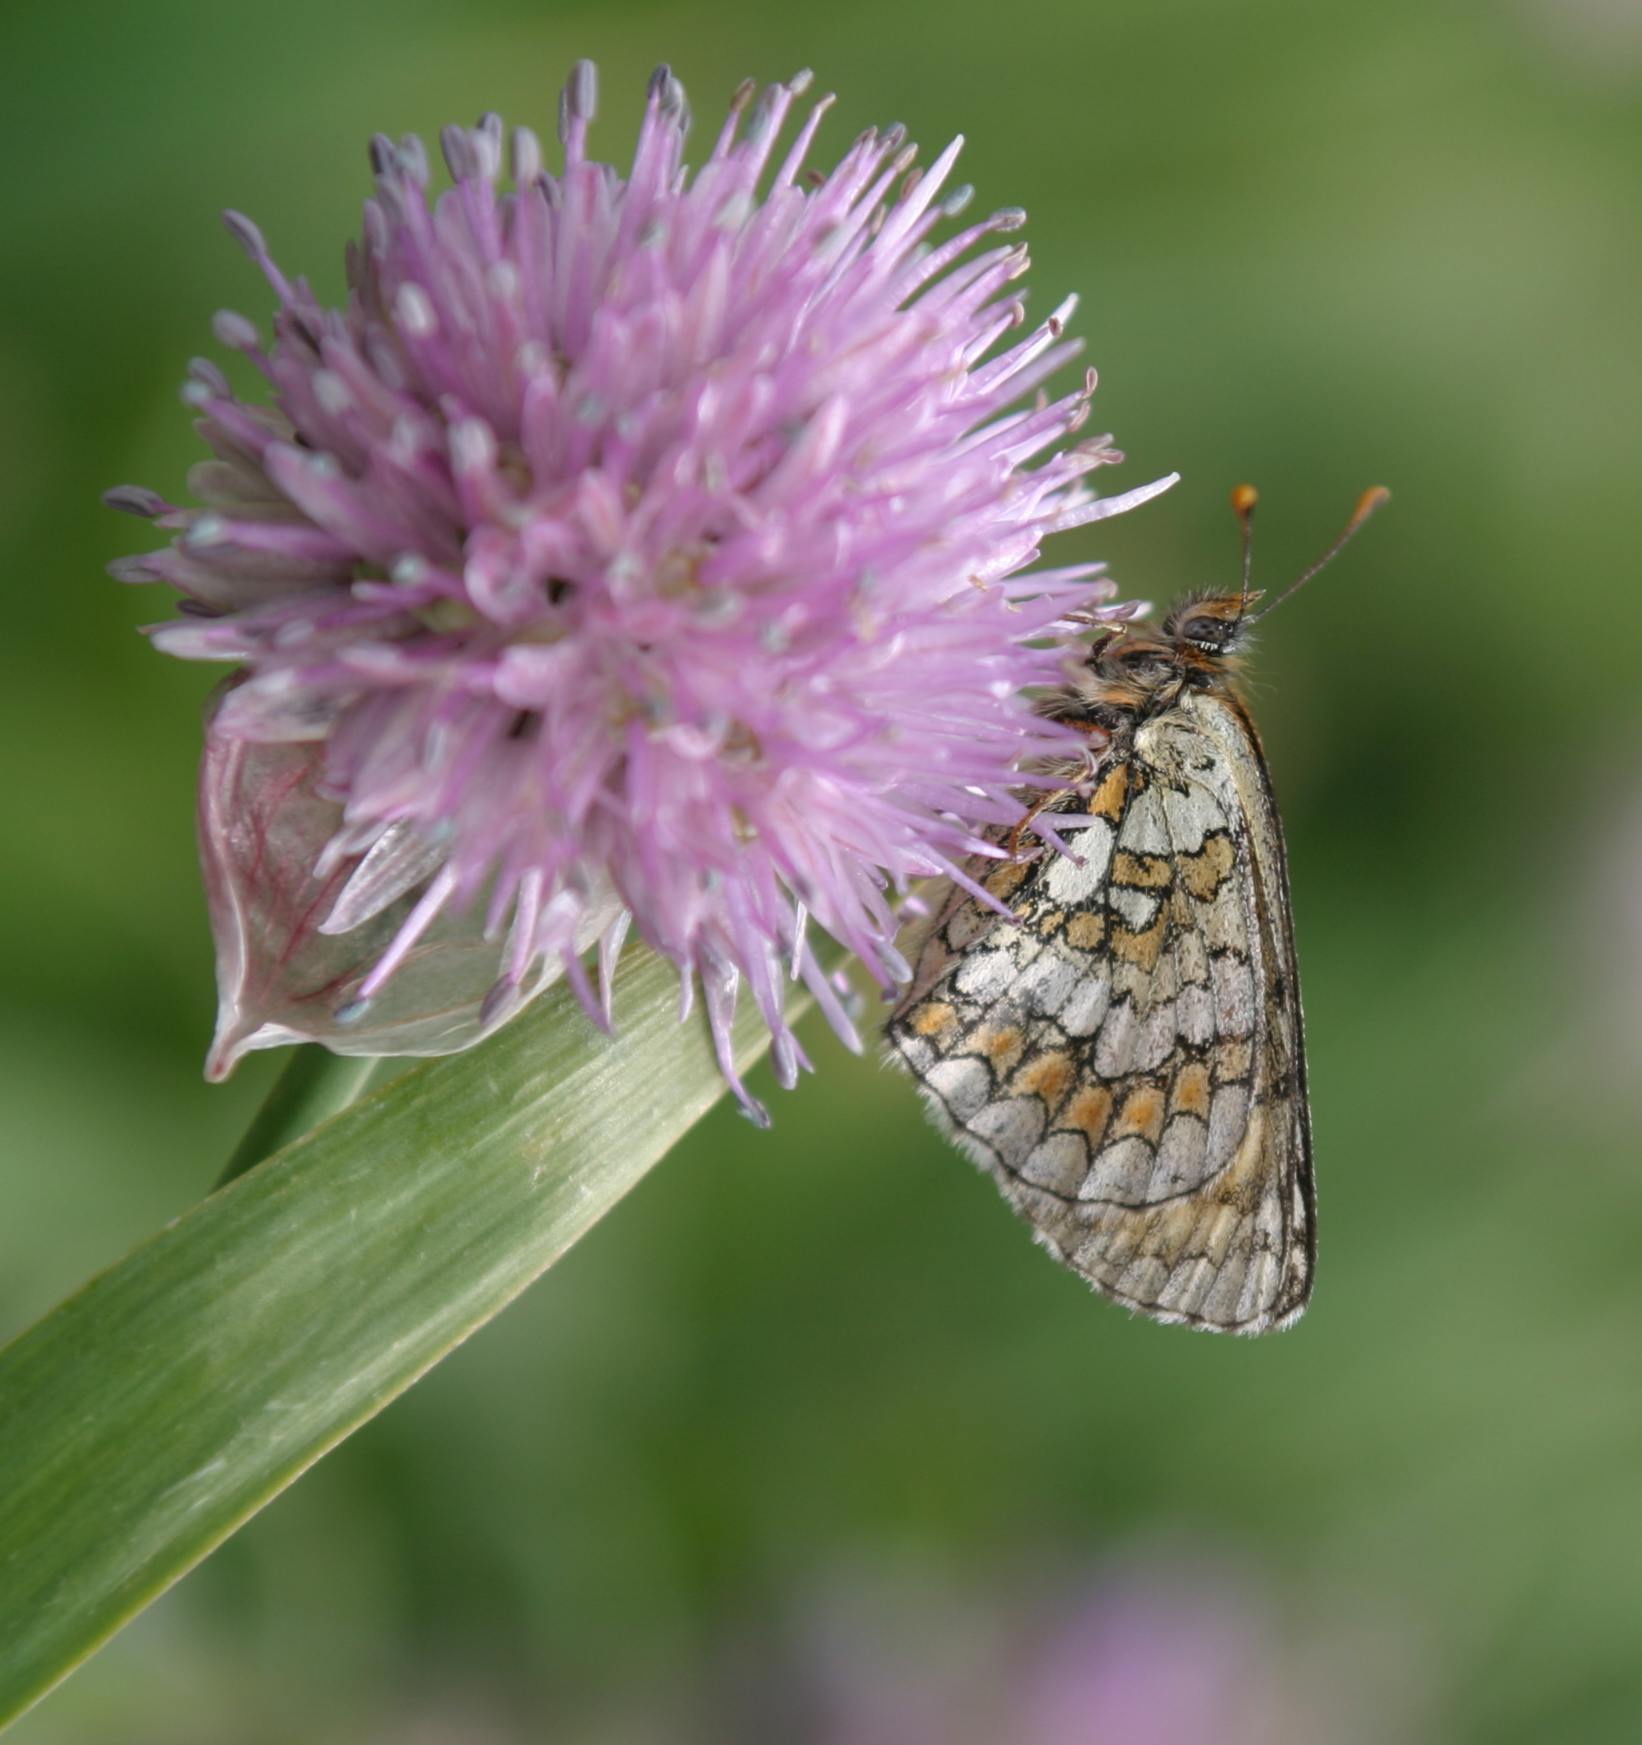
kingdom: Plantae
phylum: Tracheophyta
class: Liliopsida
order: Asparagales
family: Amaryllidaceae
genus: Allium
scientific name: Allium platyspathum
